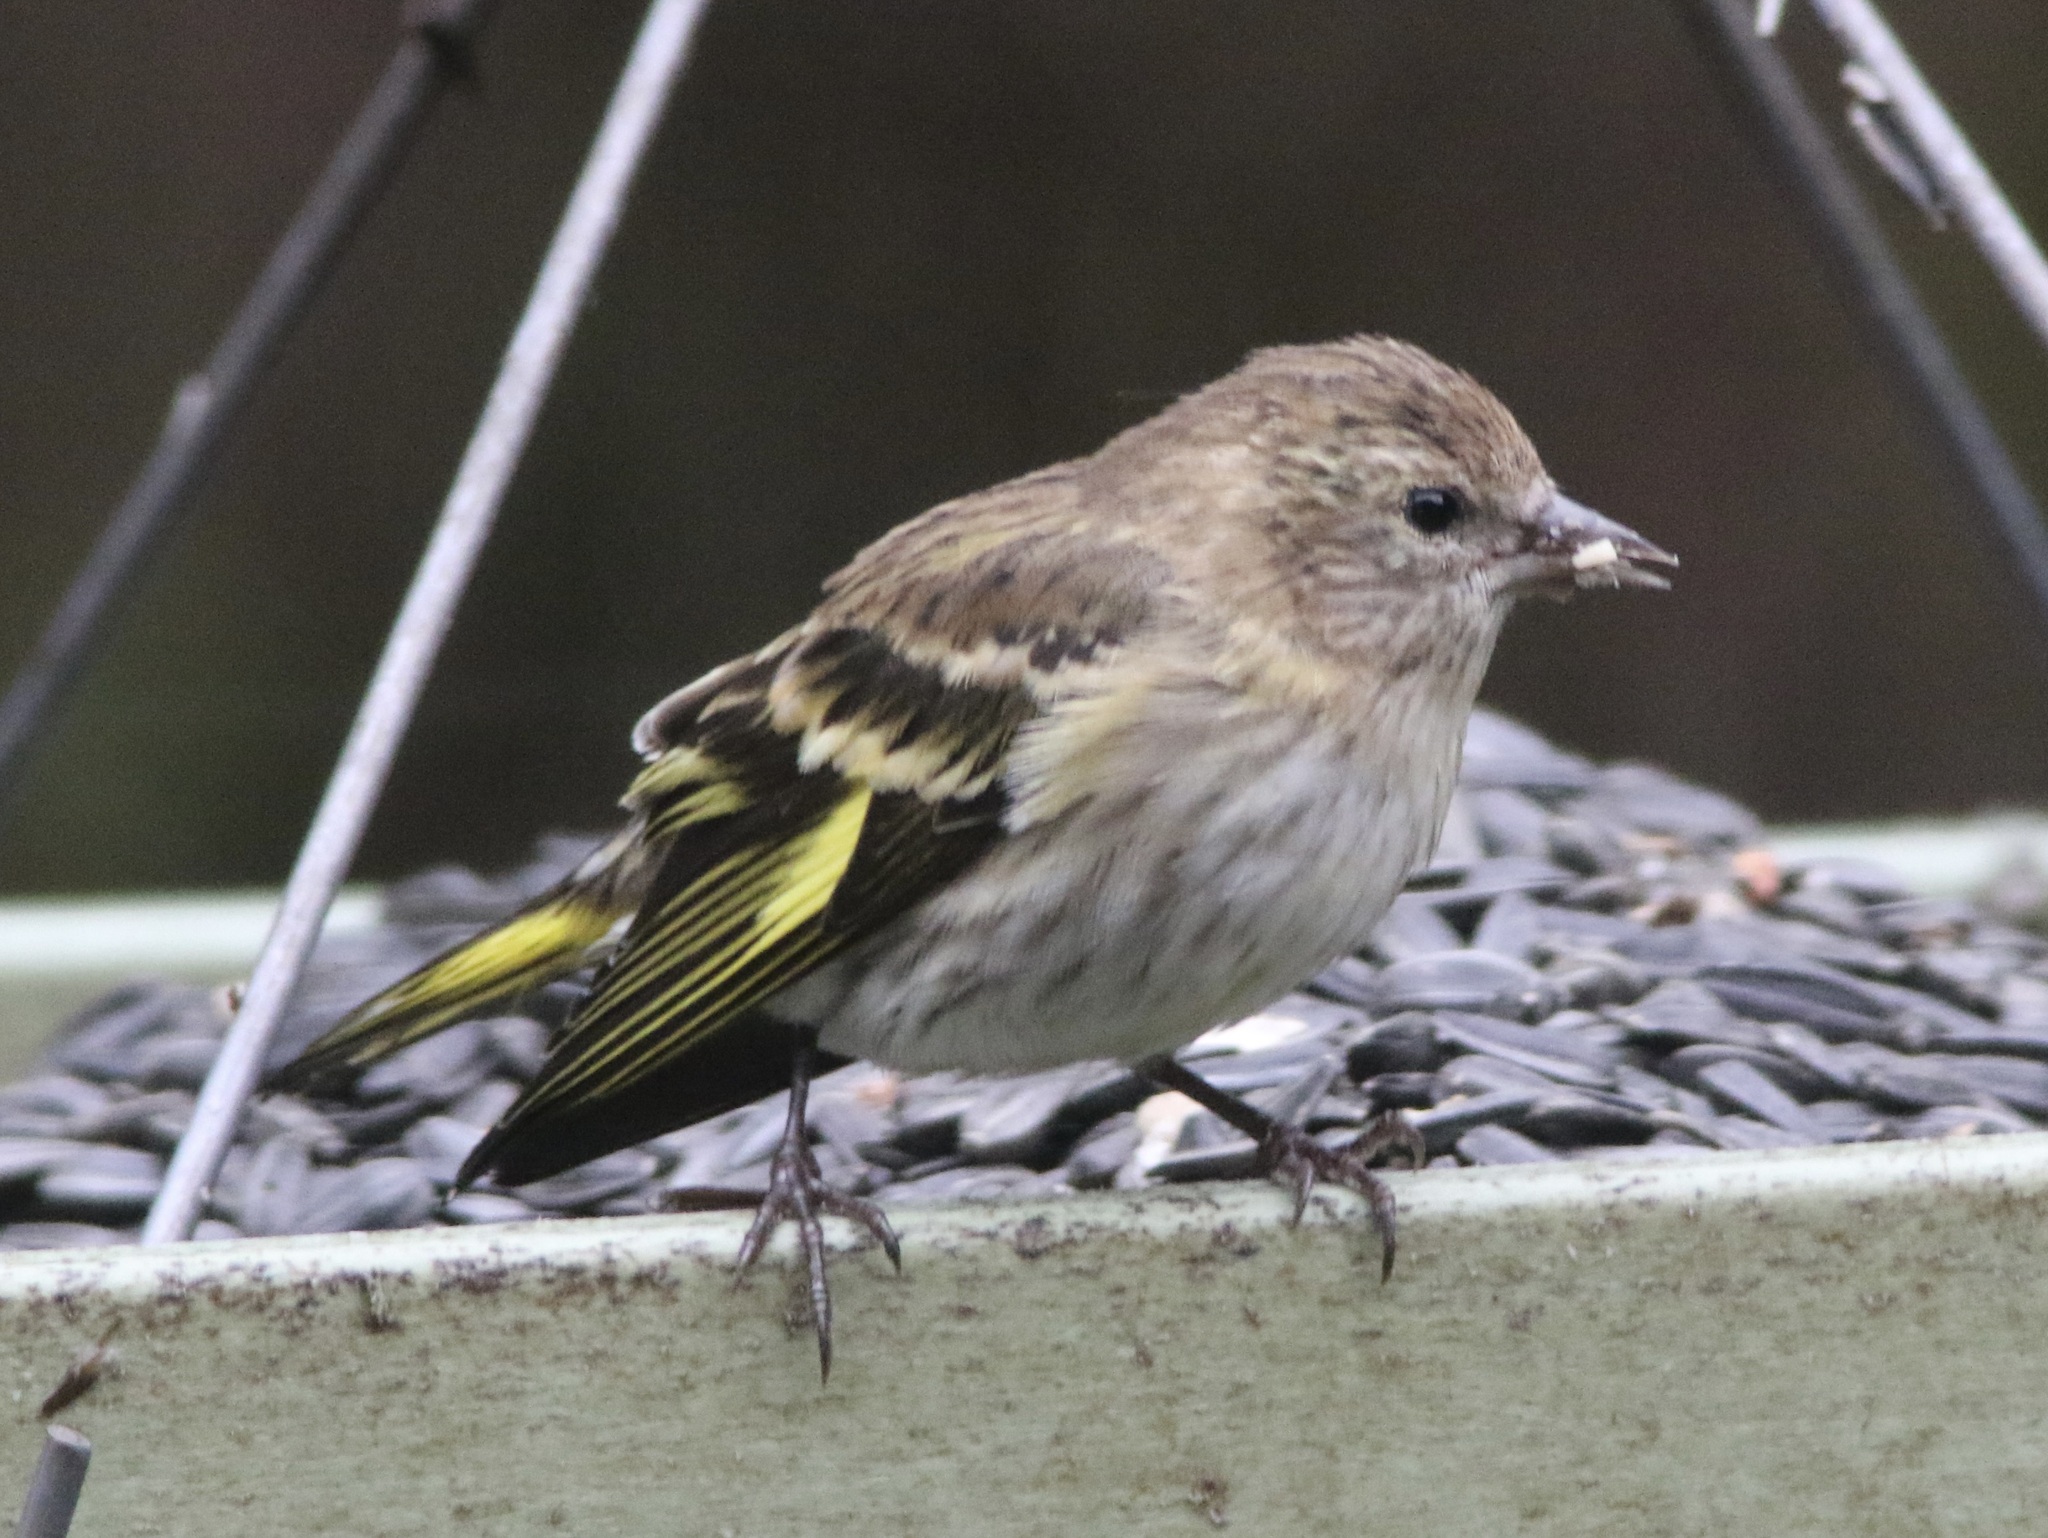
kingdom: Animalia
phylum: Chordata
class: Aves
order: Passeriformes
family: Fringillidae
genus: Spinus
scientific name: Spinus pinus
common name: Pine siskin
